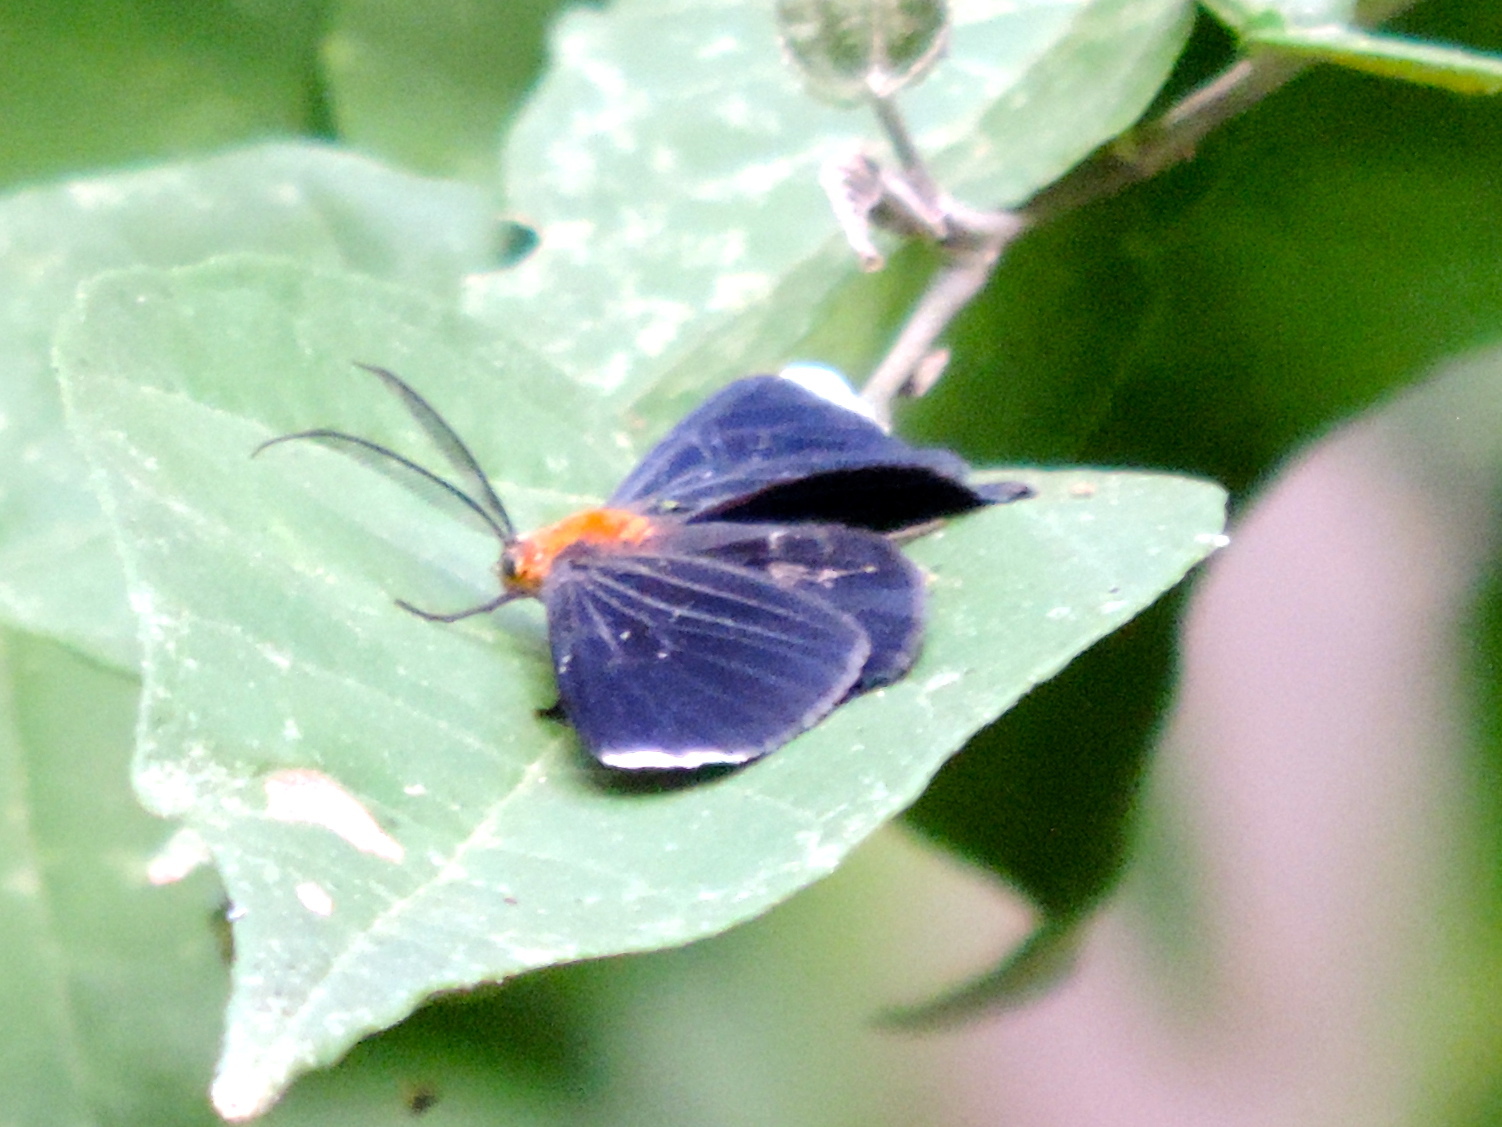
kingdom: Animalia
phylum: Arthropoda
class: Insecta
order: Lepidoptera
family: Geometridae
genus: Melanchroia
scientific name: Melanchroia chephise
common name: White-tipped black
